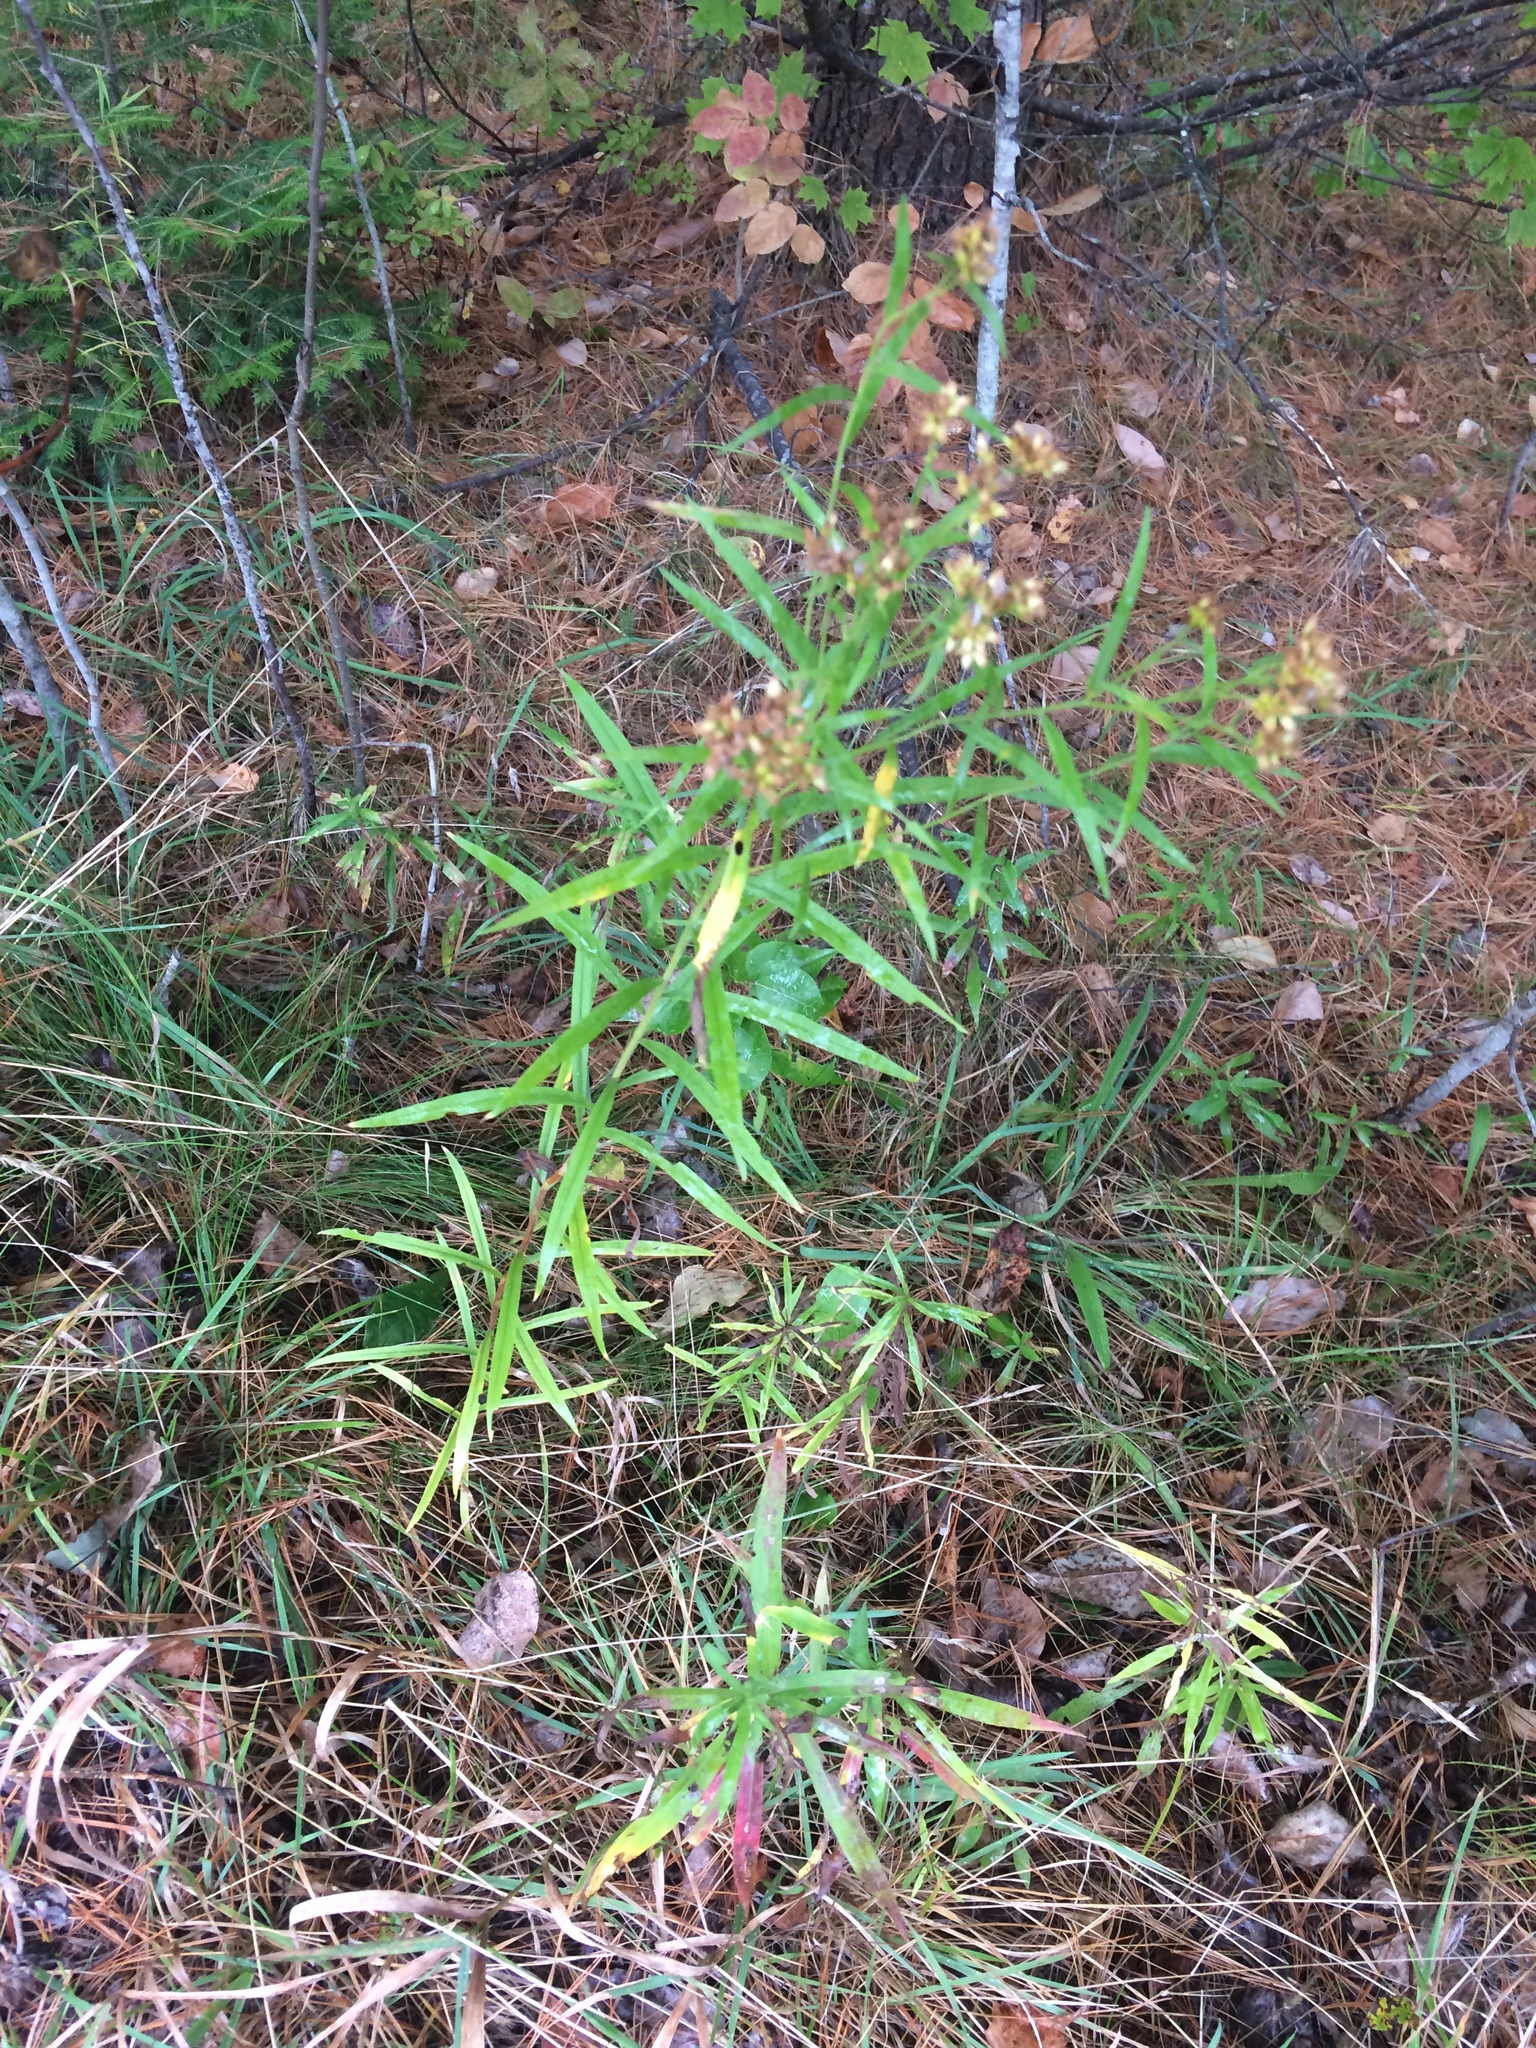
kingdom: Plantae
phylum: Tracheophyta
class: Magnoliopsida
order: Asterales
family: Asteraceae
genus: Euthamia
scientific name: Euthamia graminifolia
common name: Common goldentop
